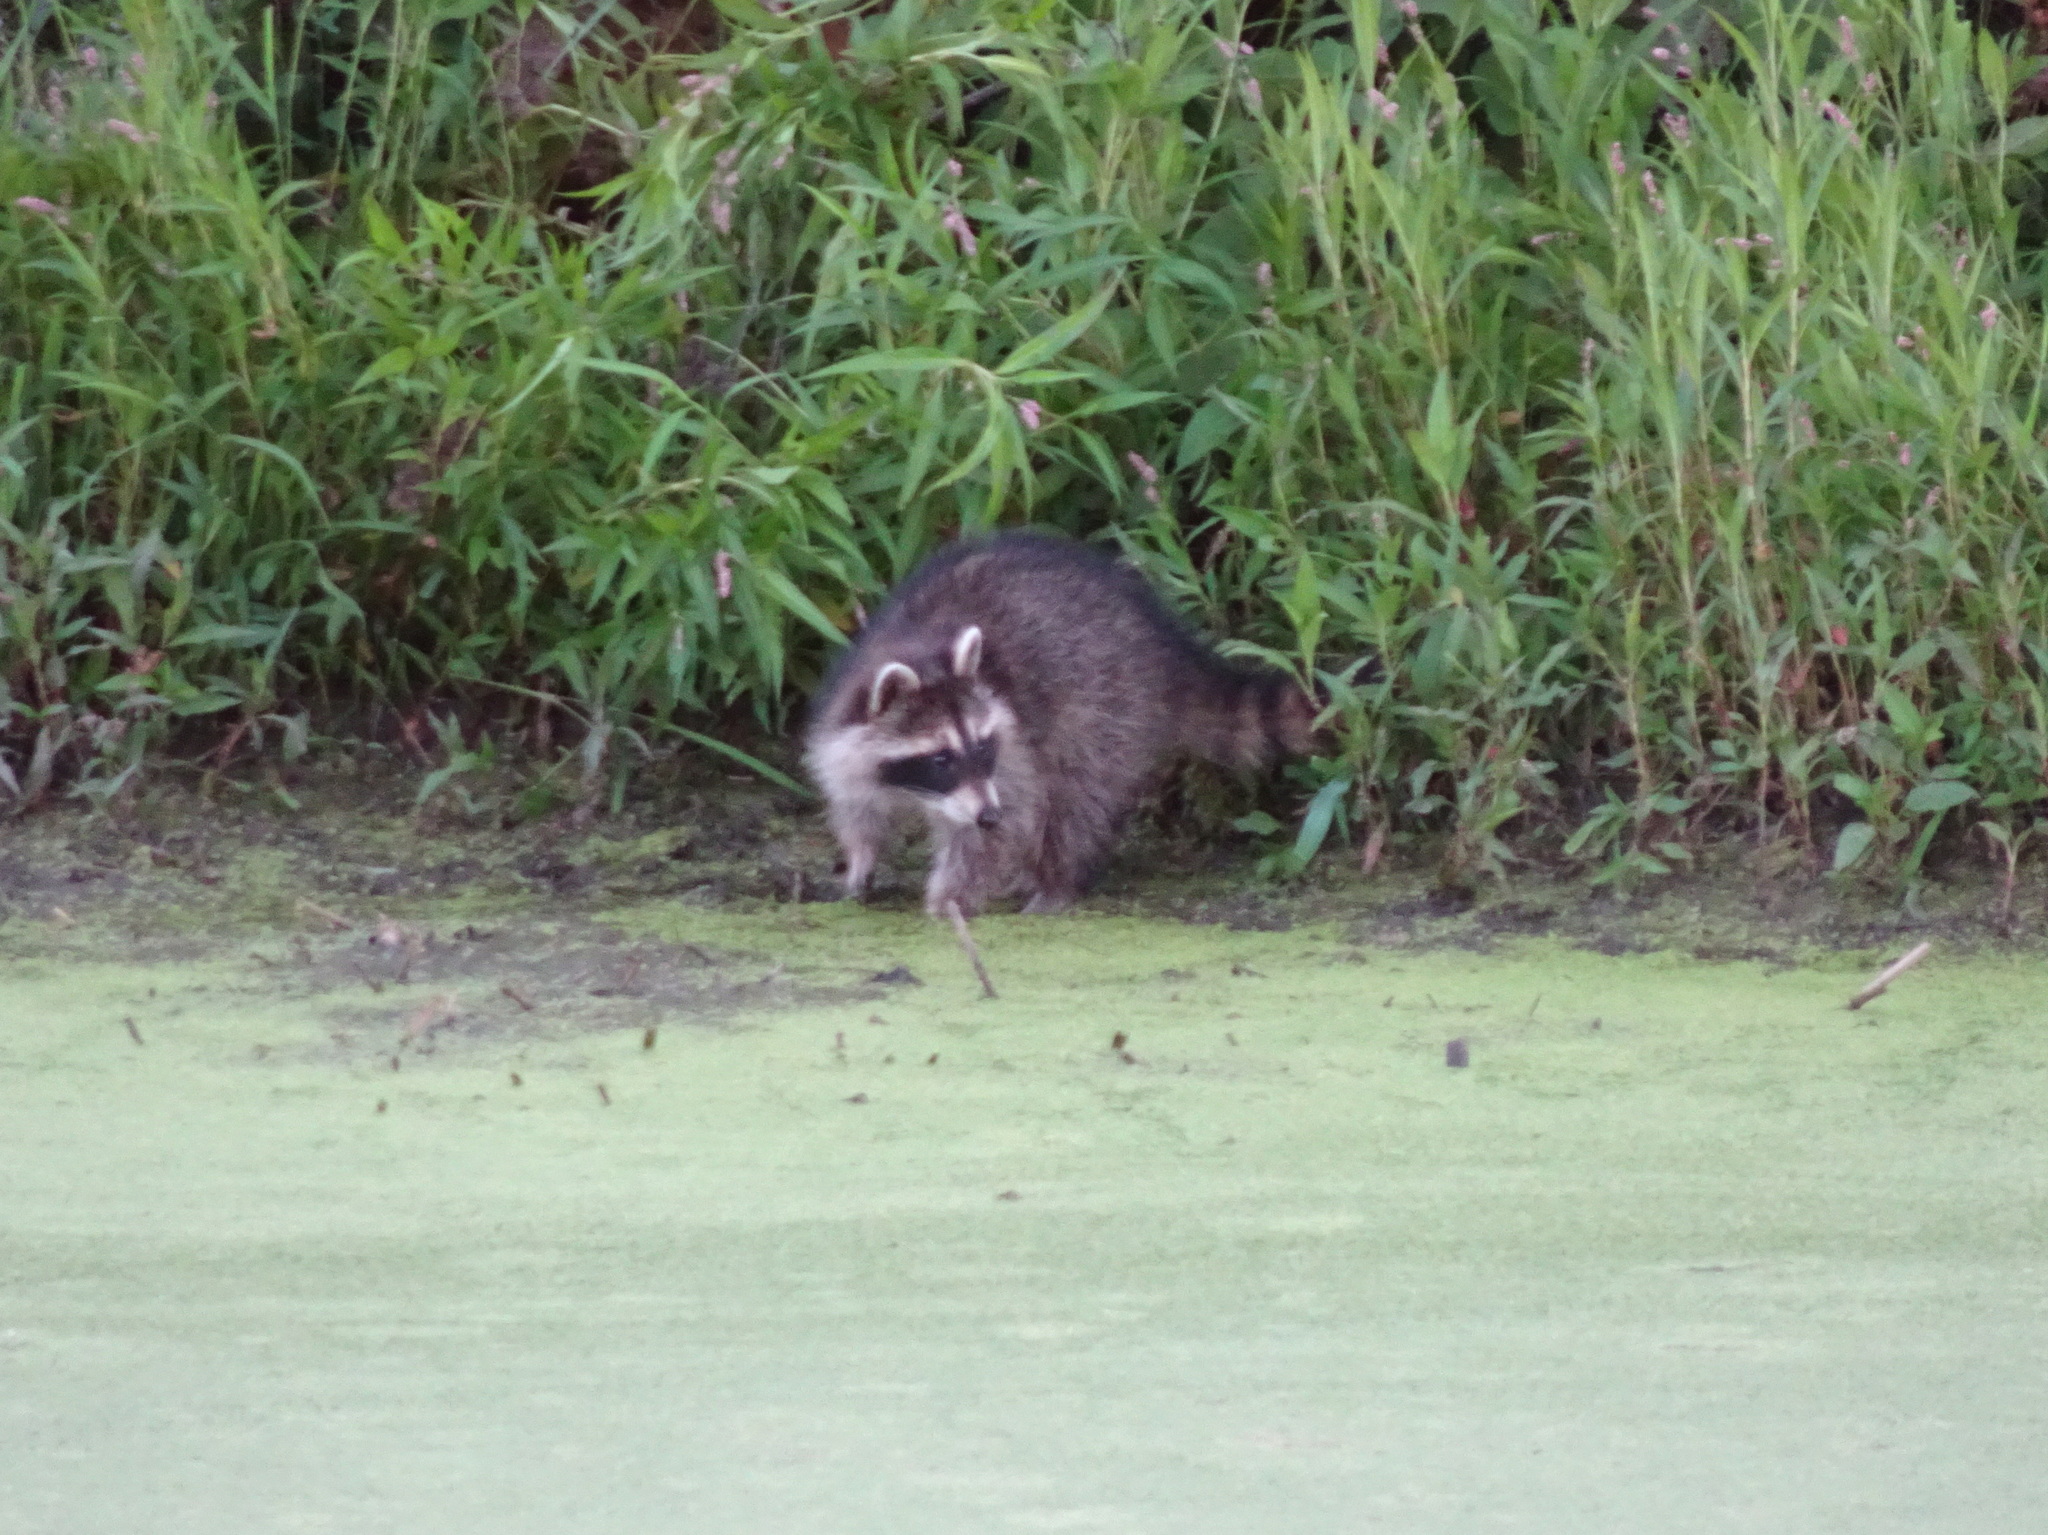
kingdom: Animalia
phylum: Chordata
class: Mammalia
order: Carnivora
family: Procyonidae
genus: Procyon
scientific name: Procyon lotor
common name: Raccoon
